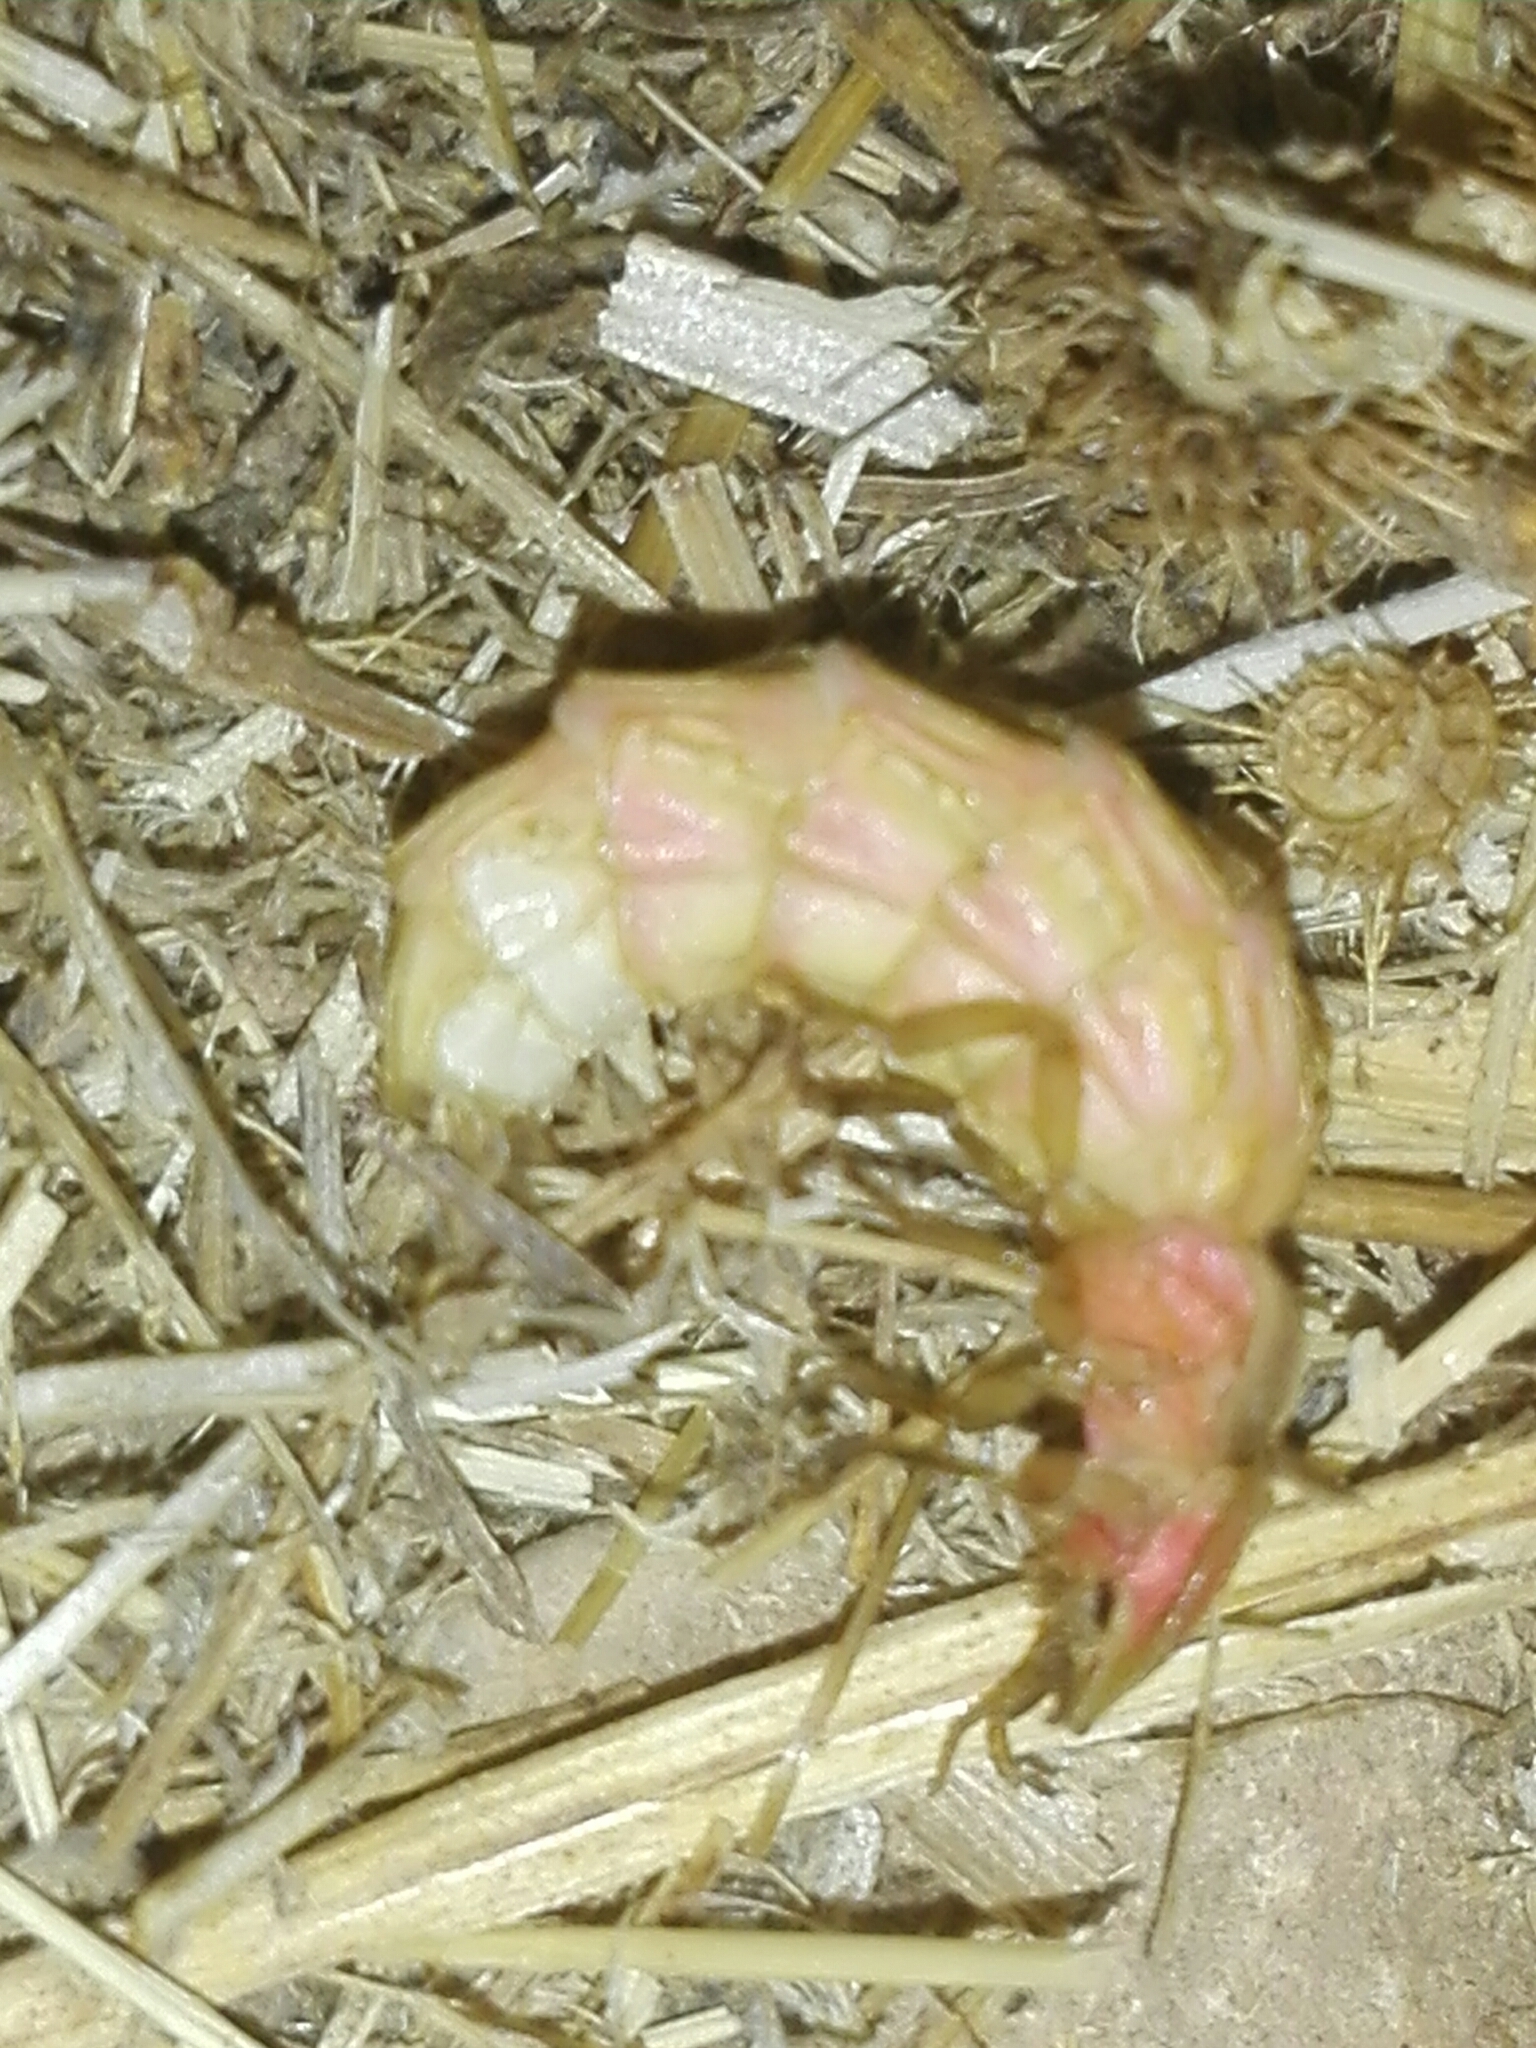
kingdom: Animalia
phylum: Arthropoda
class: Insecta
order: Coleoptera
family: Lampyridae
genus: Nyctophila
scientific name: Nyctophila reichii
